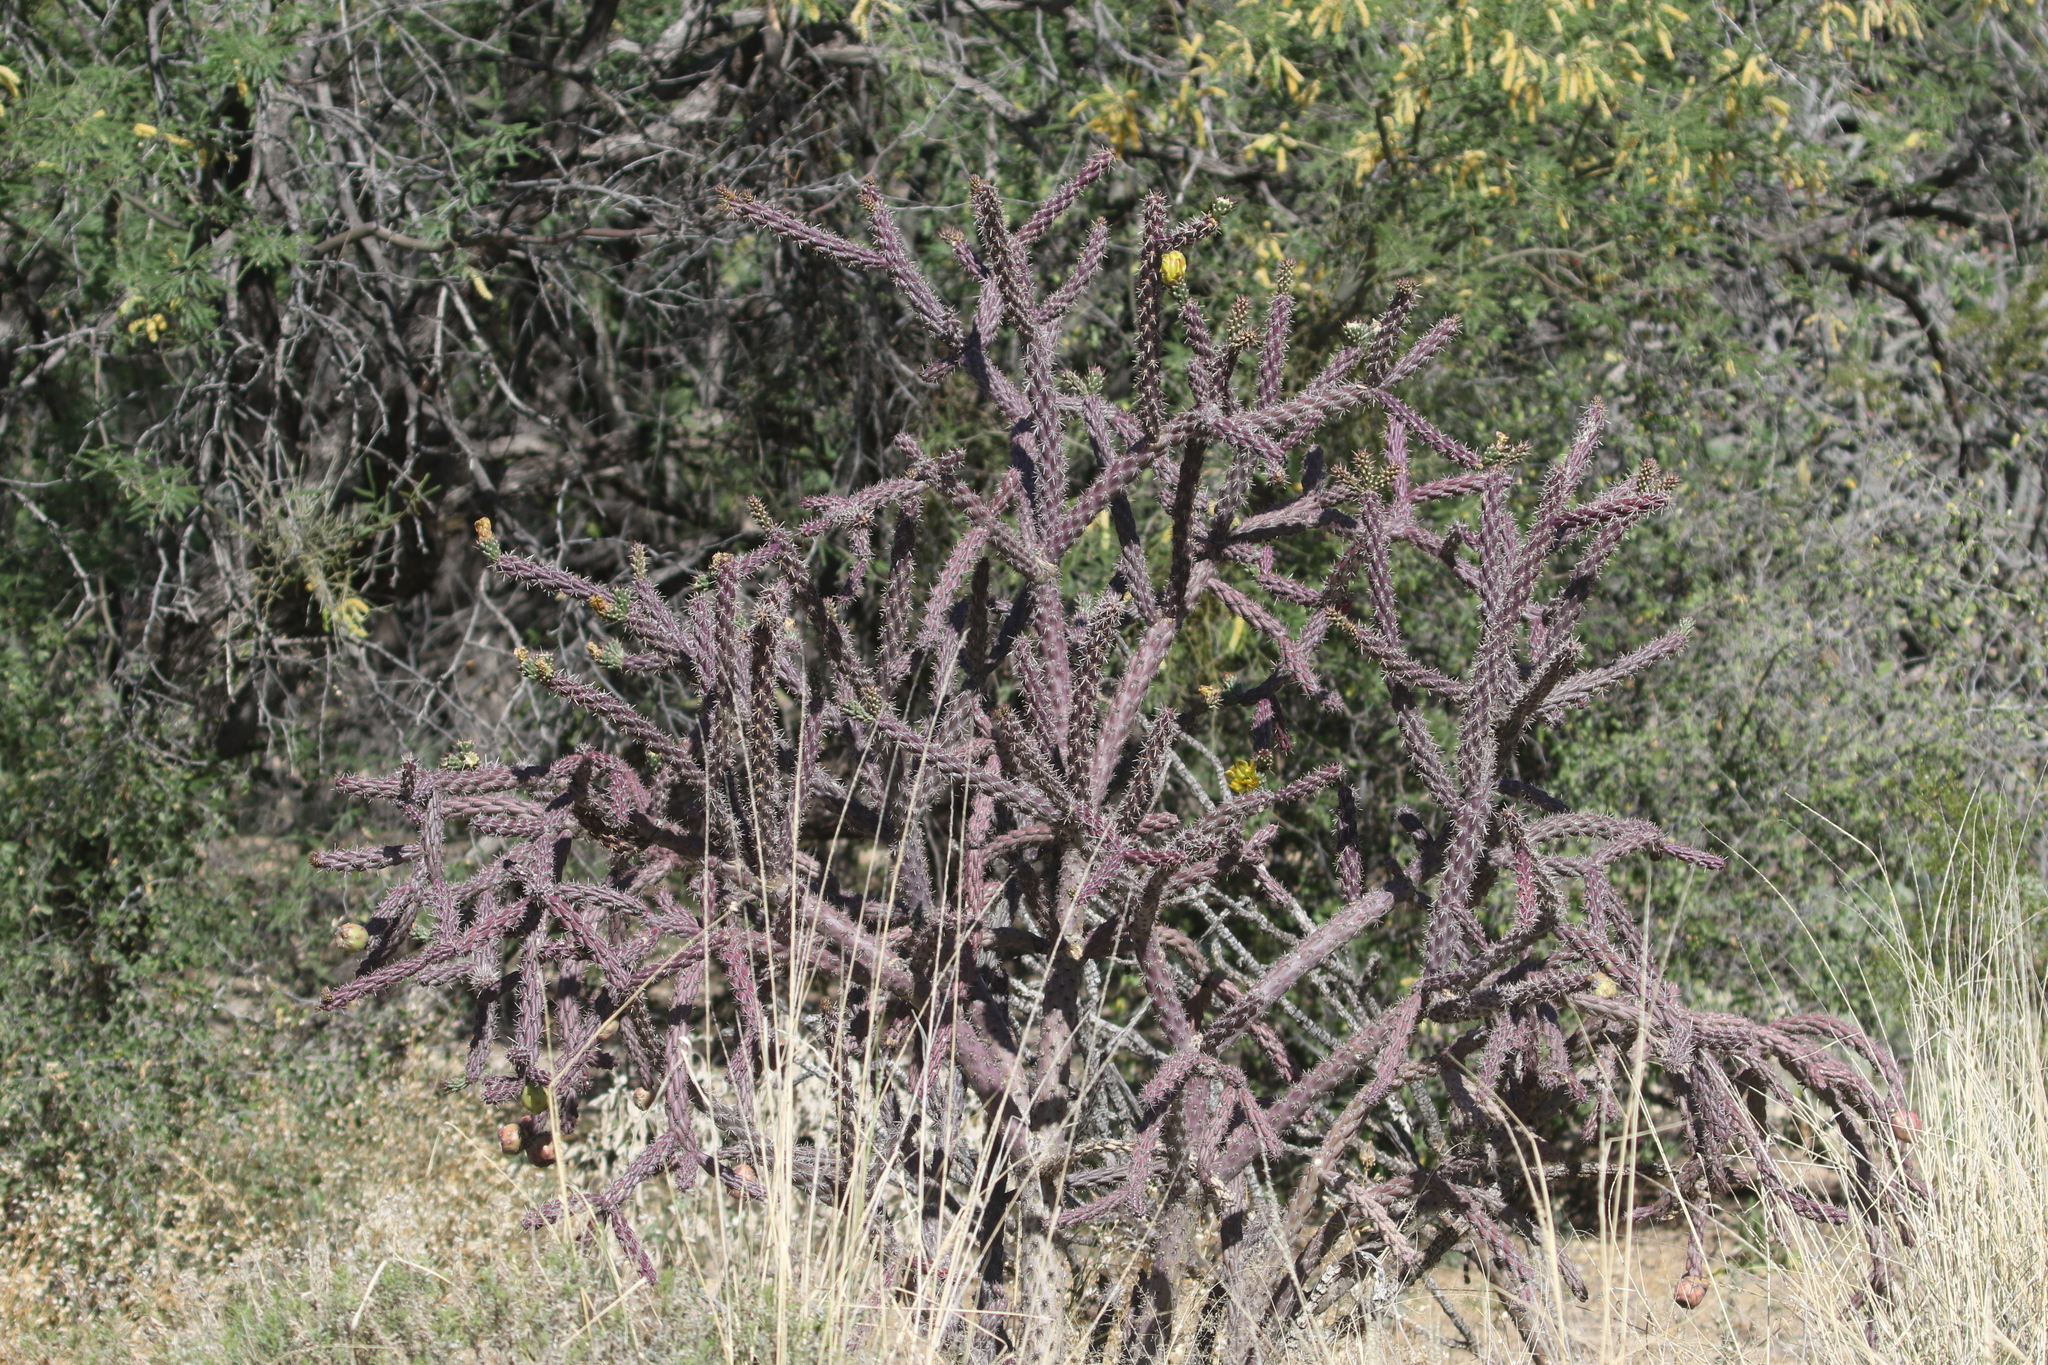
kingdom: Plantae
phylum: Tracheophyta
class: Magnoliopsida
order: Caryophyllales
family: Cactaceae
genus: Cylindropuntia
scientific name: Cylindropuntia imbricata
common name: Candelabrum cactus
